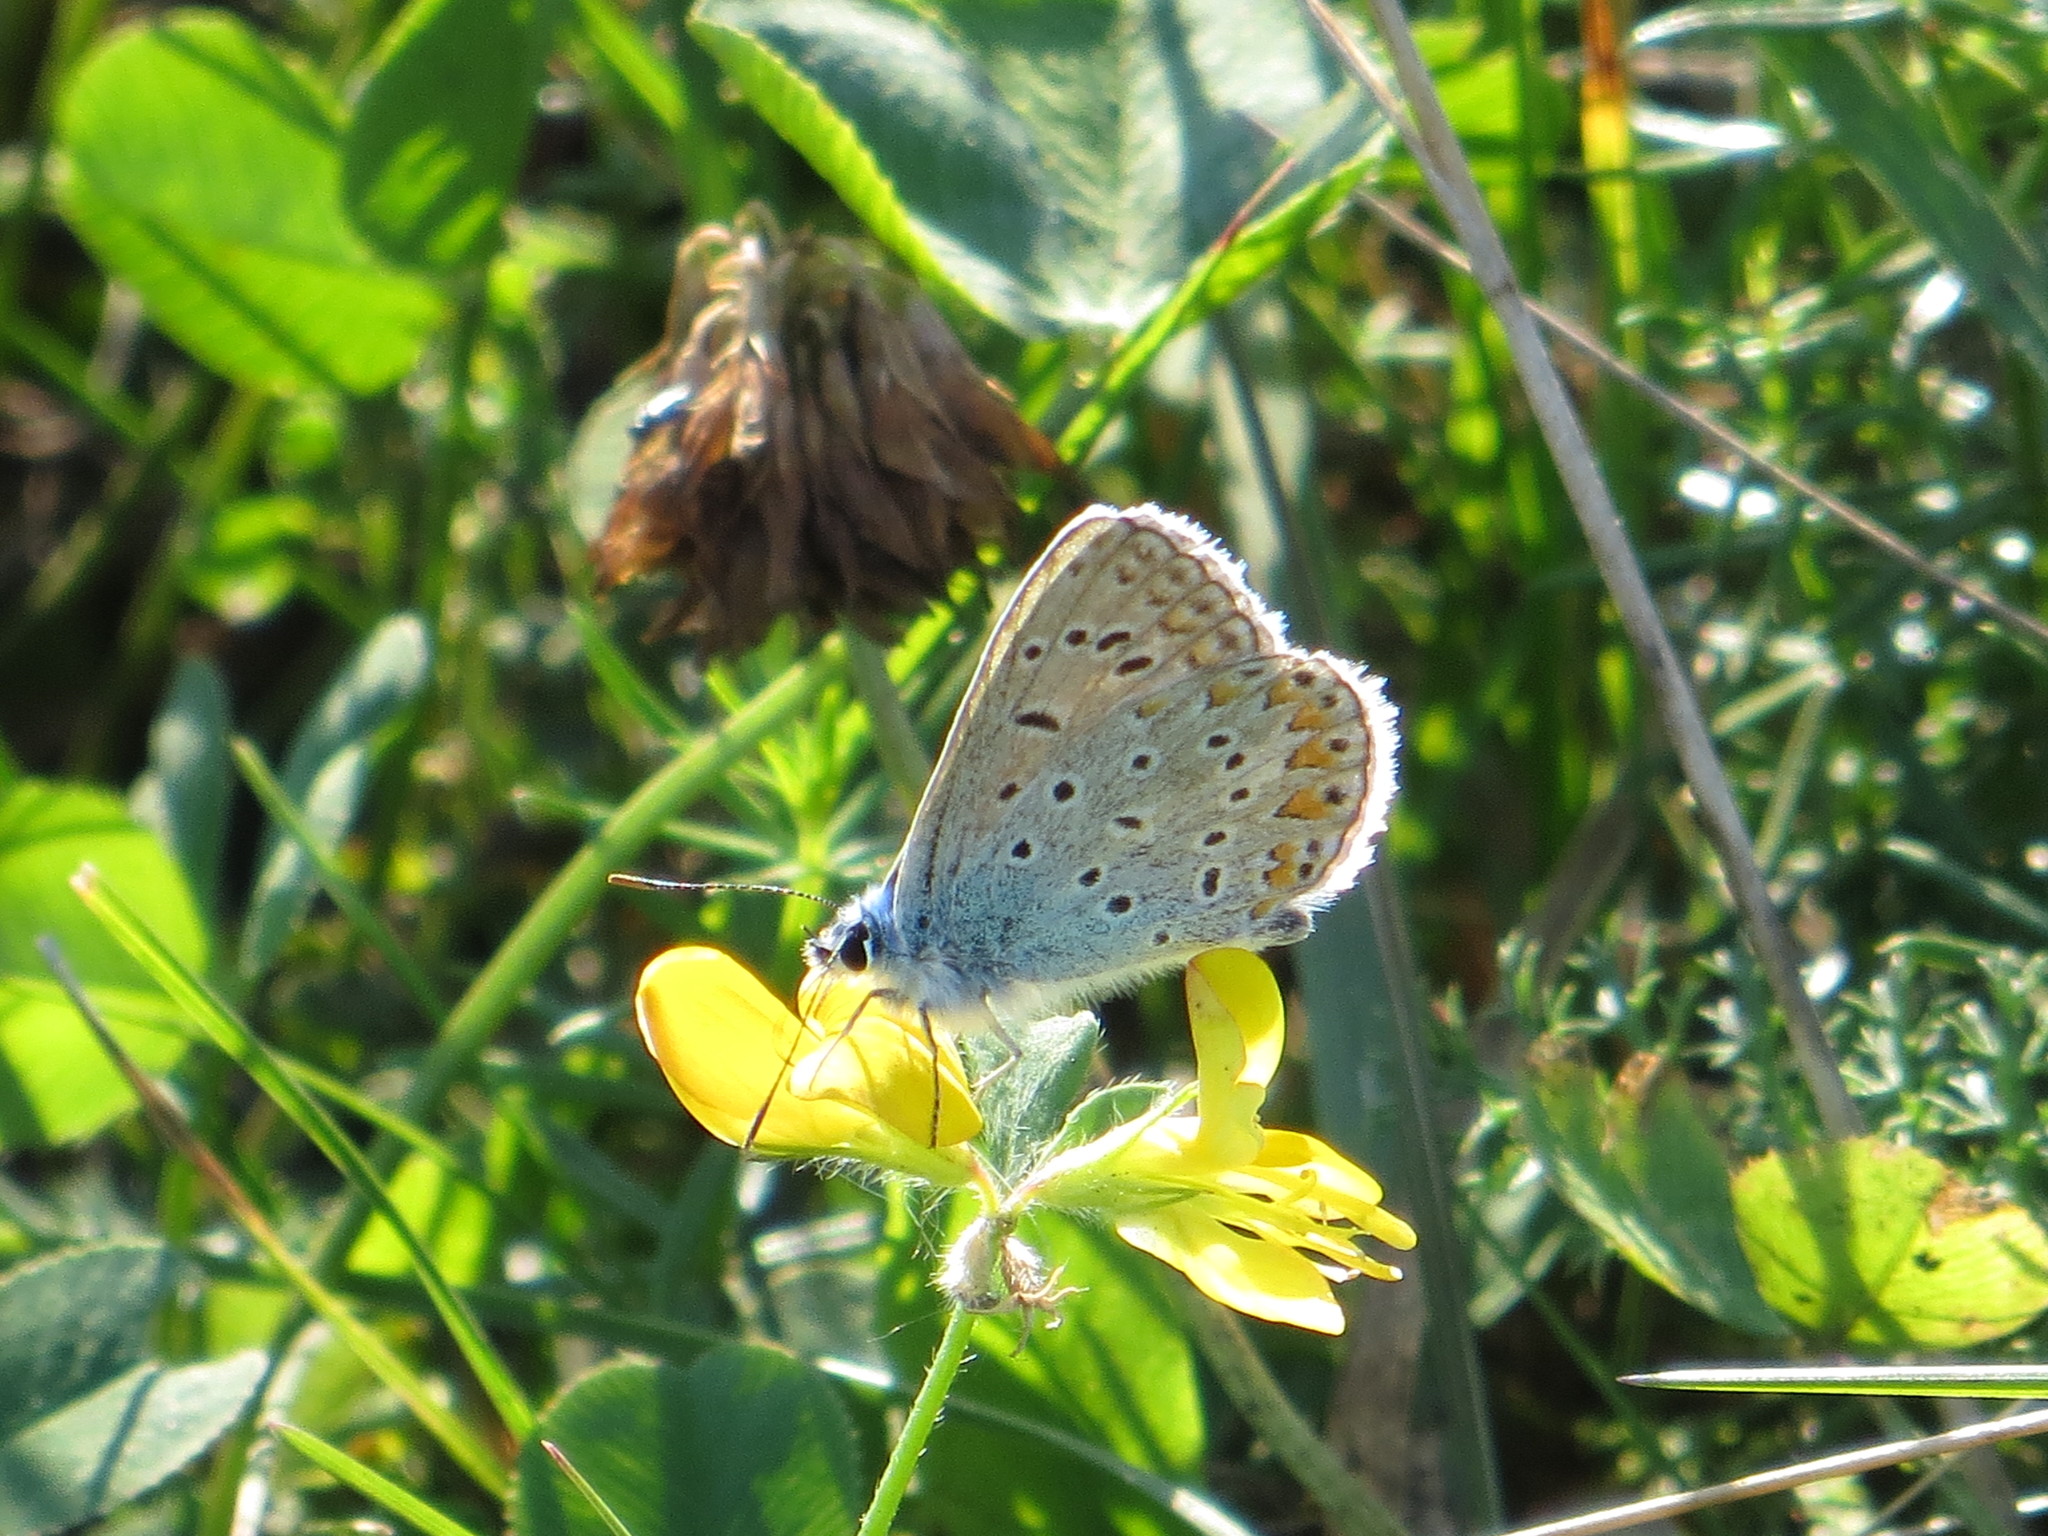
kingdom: Animalia
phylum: Arthropoda
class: Insecta
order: Lepidoptera
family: Lycaenidae
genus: Polyommatus
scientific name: Polyommatus icarus
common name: Common blue
